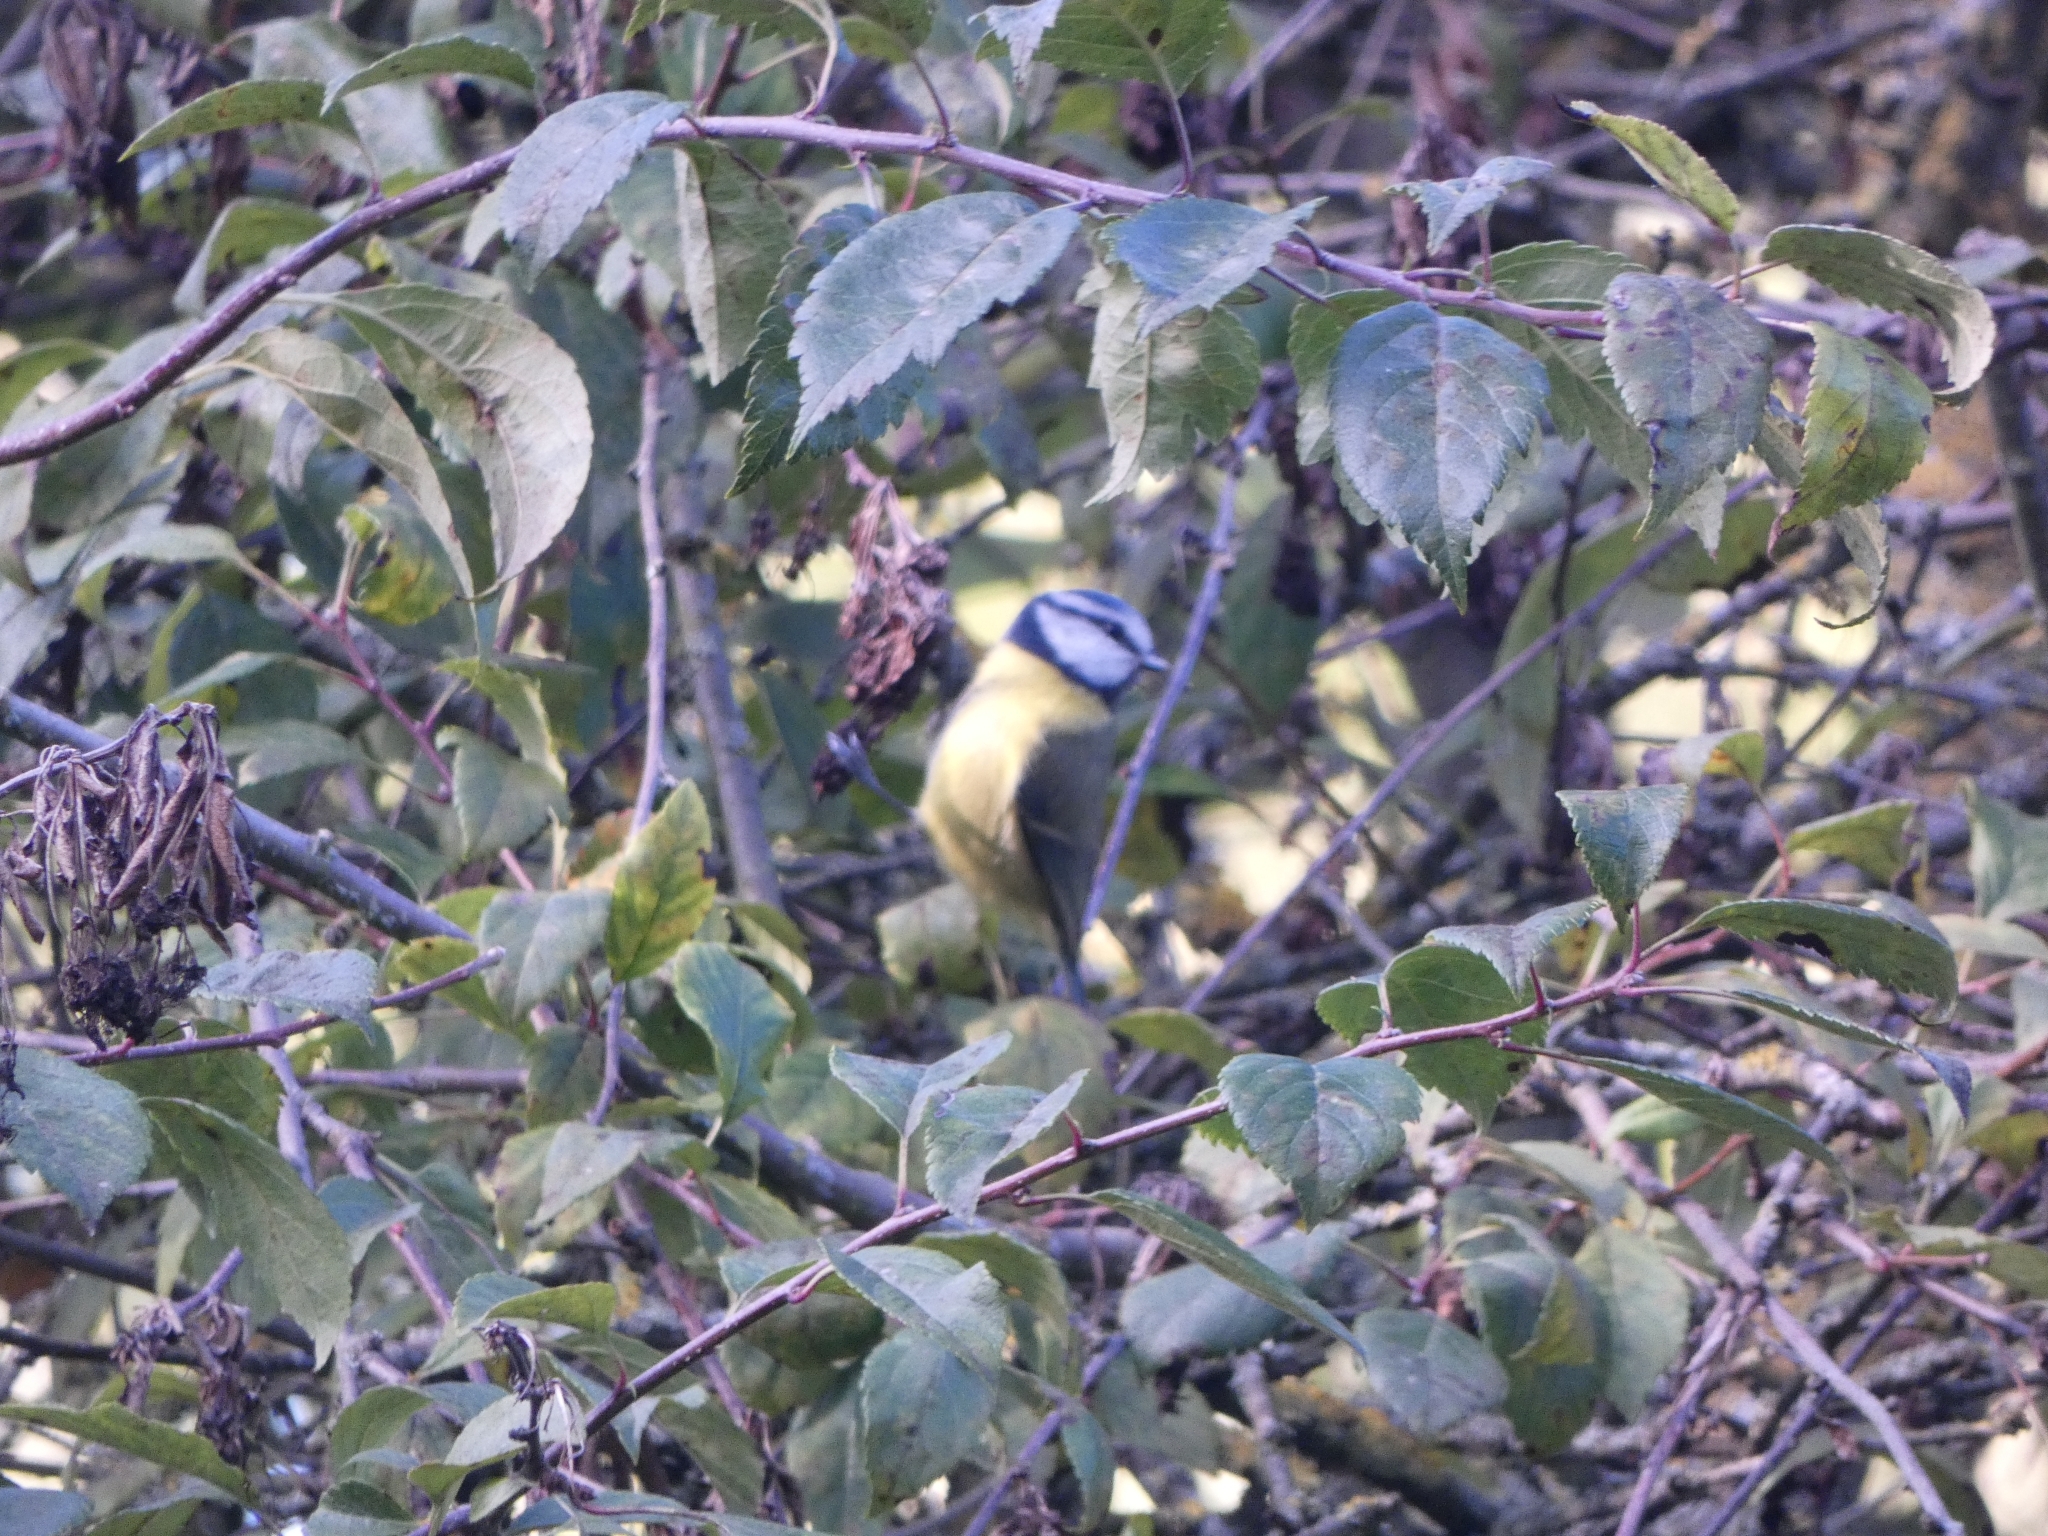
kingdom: Animalia
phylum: Chordata
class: Aves
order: Passeriformes
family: Paridae
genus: Cyanistes
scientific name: Cyanistes caeruleus
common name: Eurasian blue tit
